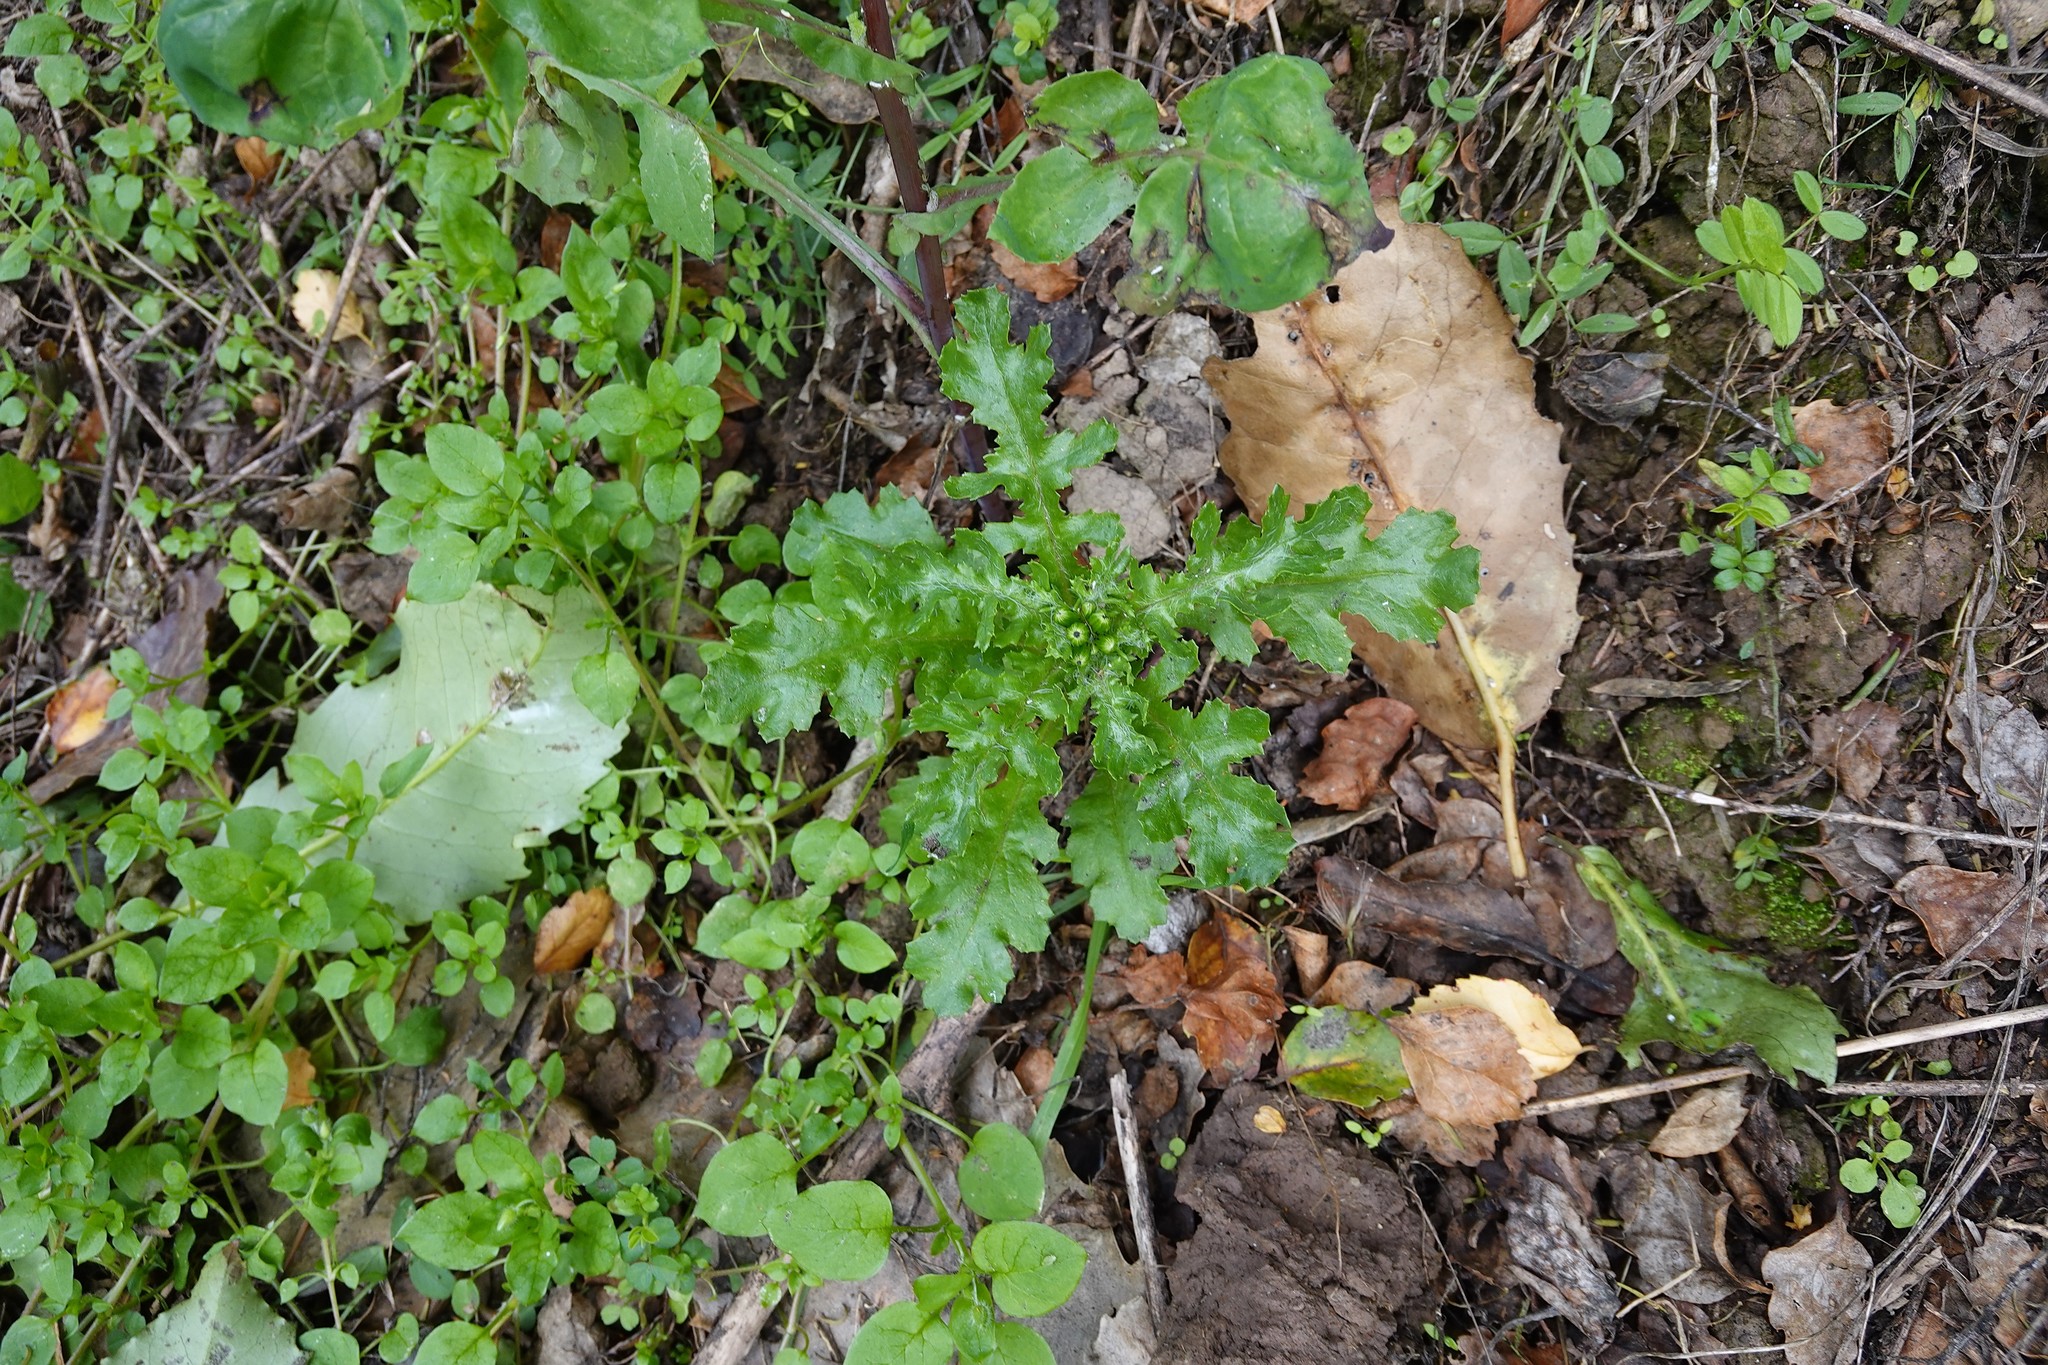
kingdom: Plantae
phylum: Tracheophyta
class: Magnoliopsida
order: Asterales
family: Asteraceae
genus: Senecio
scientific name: Senecio vulgaris
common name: Old-man-in-the-spring
